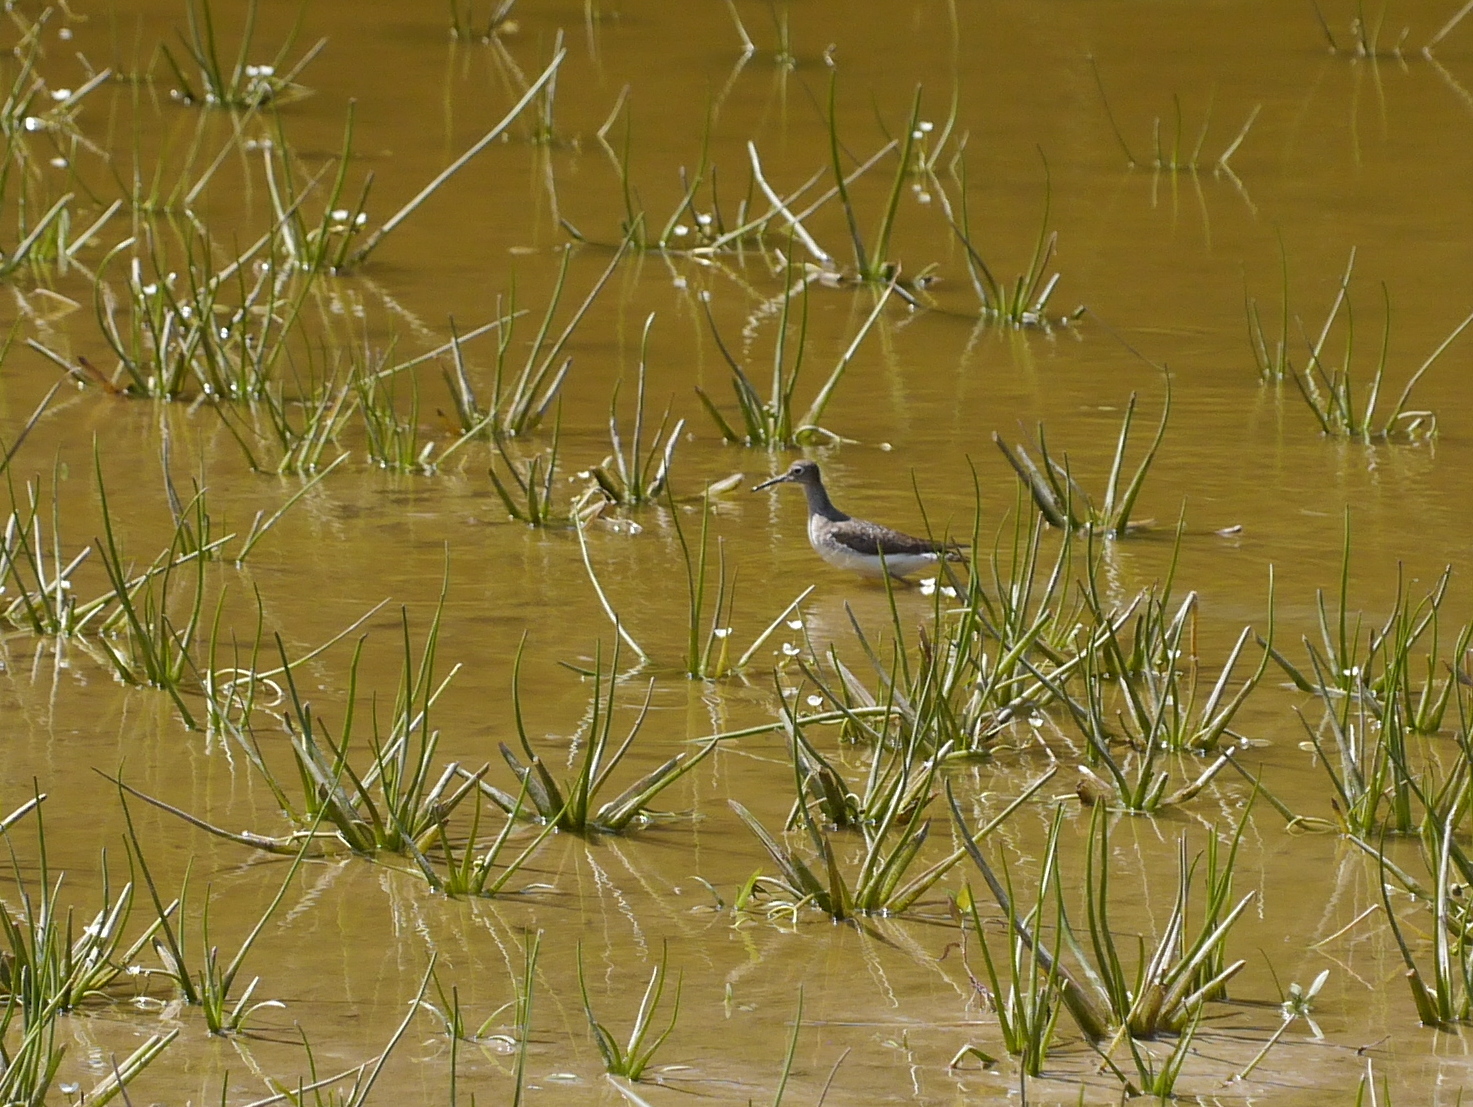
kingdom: Animalia
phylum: Chordata
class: Aves
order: Charadriiformes
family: Scolopacidae
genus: Tringa
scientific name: Tringa solitaria
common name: Solitary sandpiper
